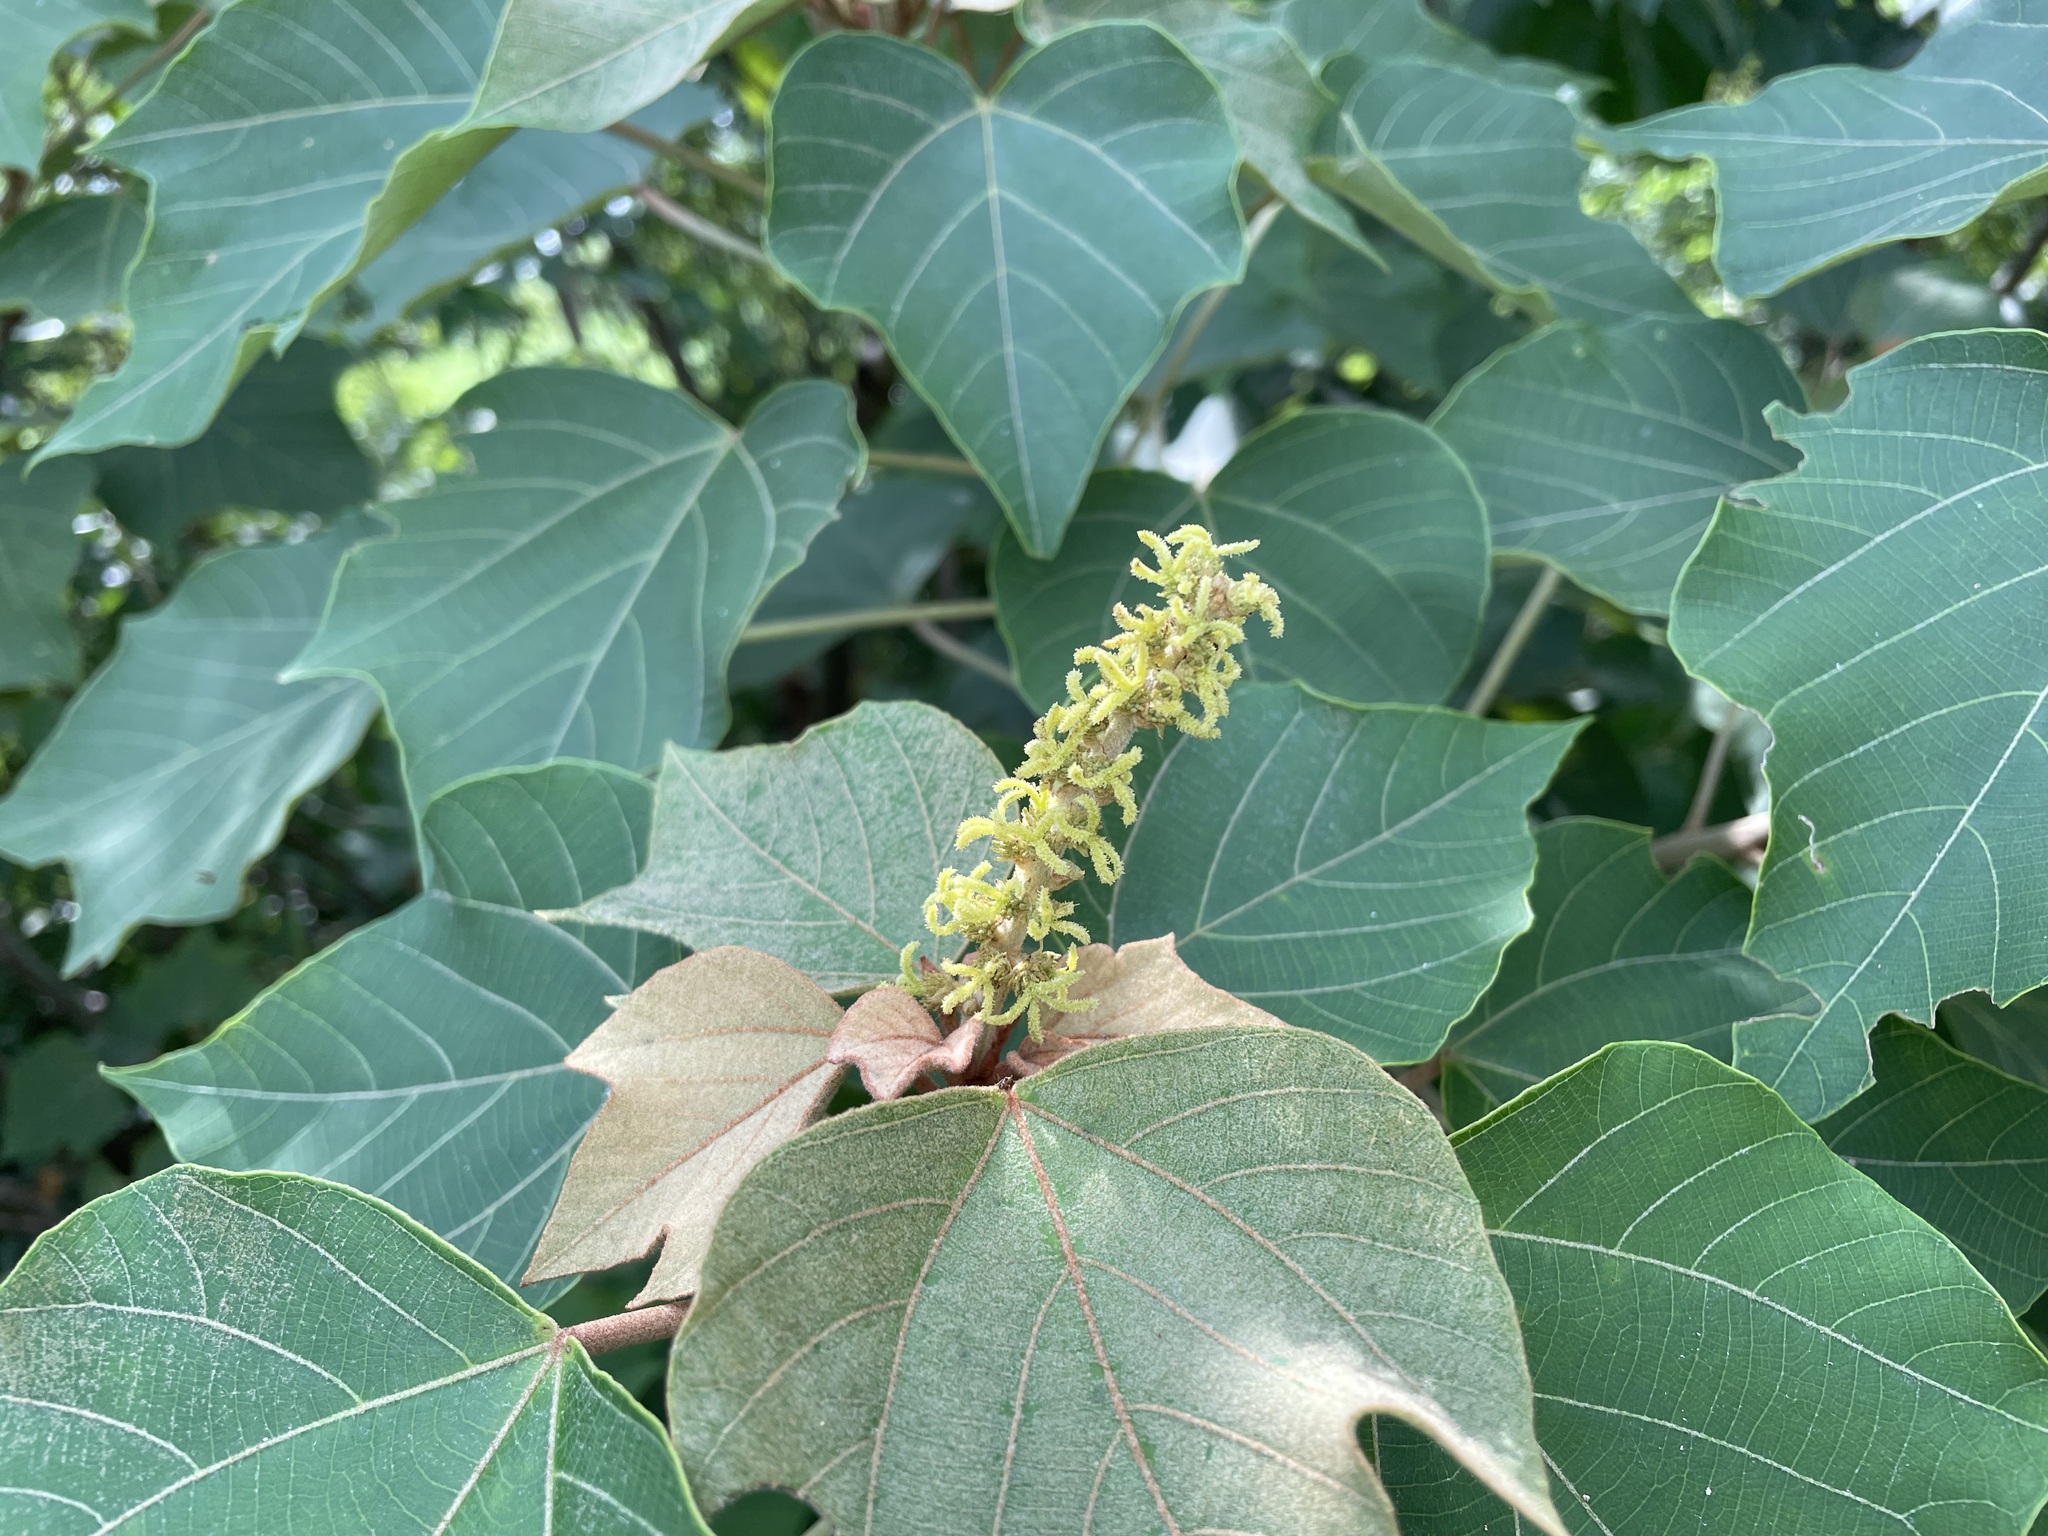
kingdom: Plantae
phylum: Tracheophyta
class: Magnoliopsida
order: Malpighiales
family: Euphorbiaceae
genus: Mallotus
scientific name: Mallotus japonicus
